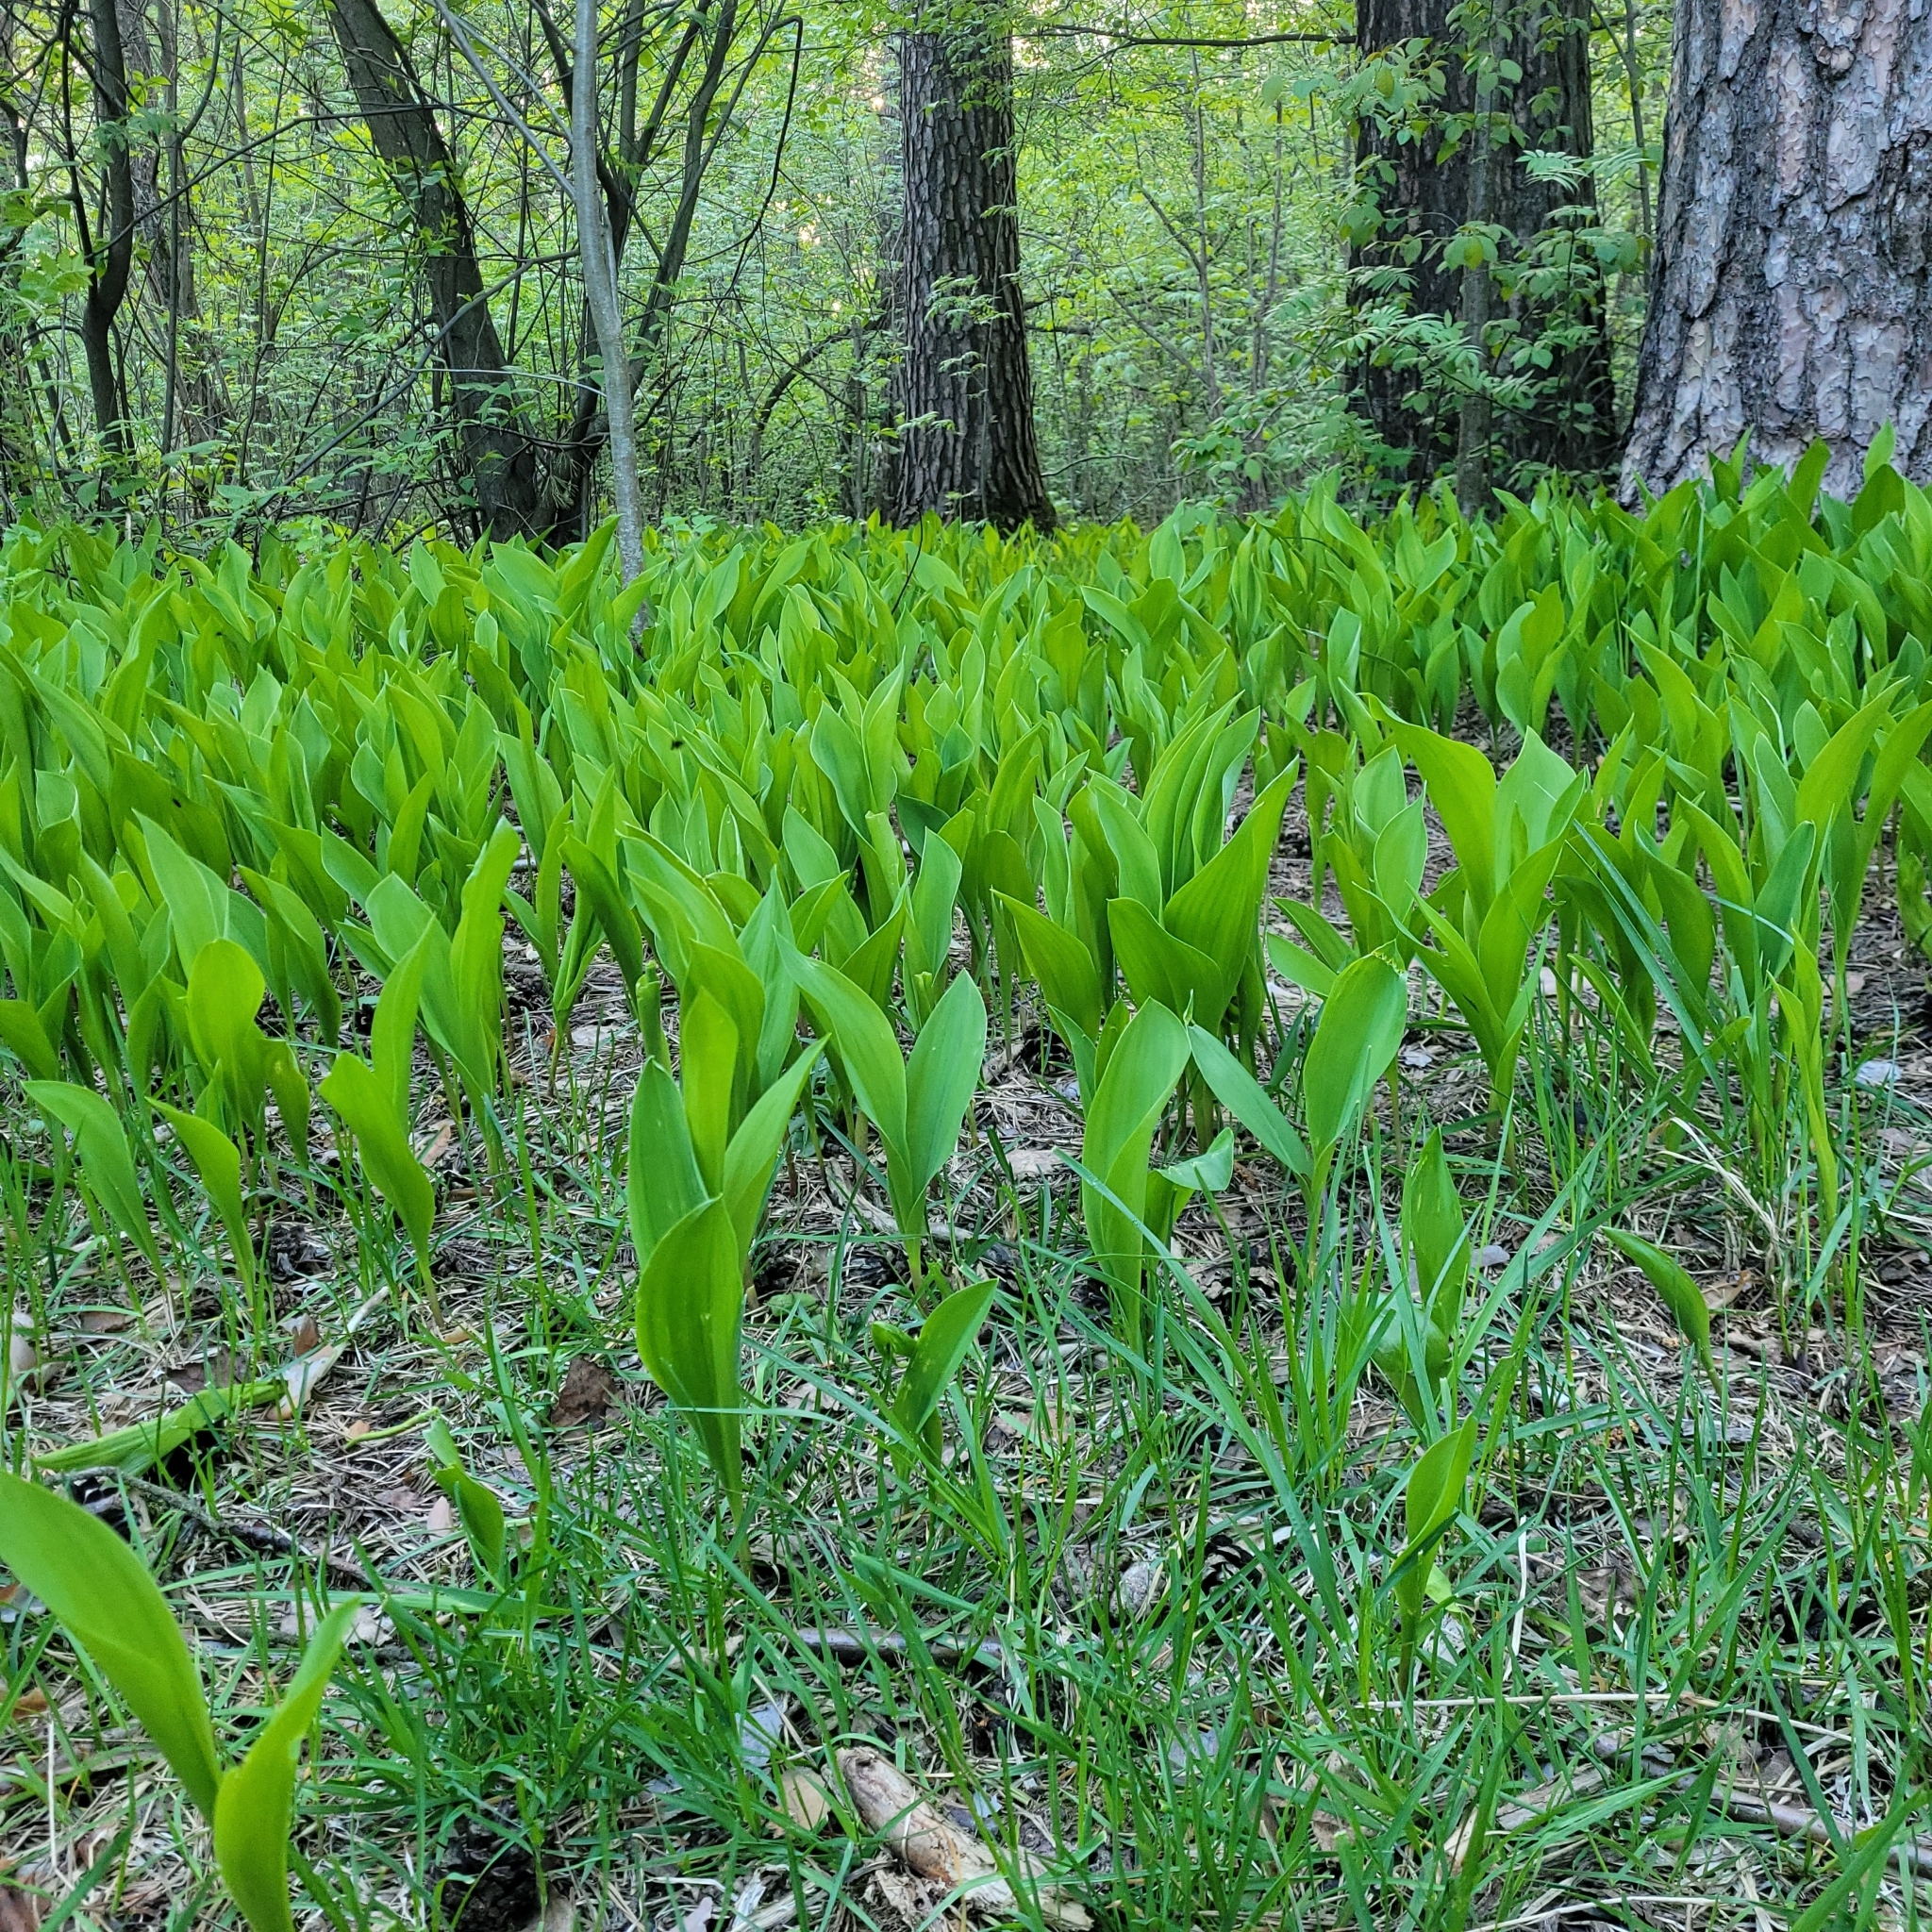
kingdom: Plantae
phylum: Tracheophyta
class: Liliopsida
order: Asparagales
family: Asparagaceae
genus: Convallaria
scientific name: Convallaria majalis
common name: Lily-of-the-valley
